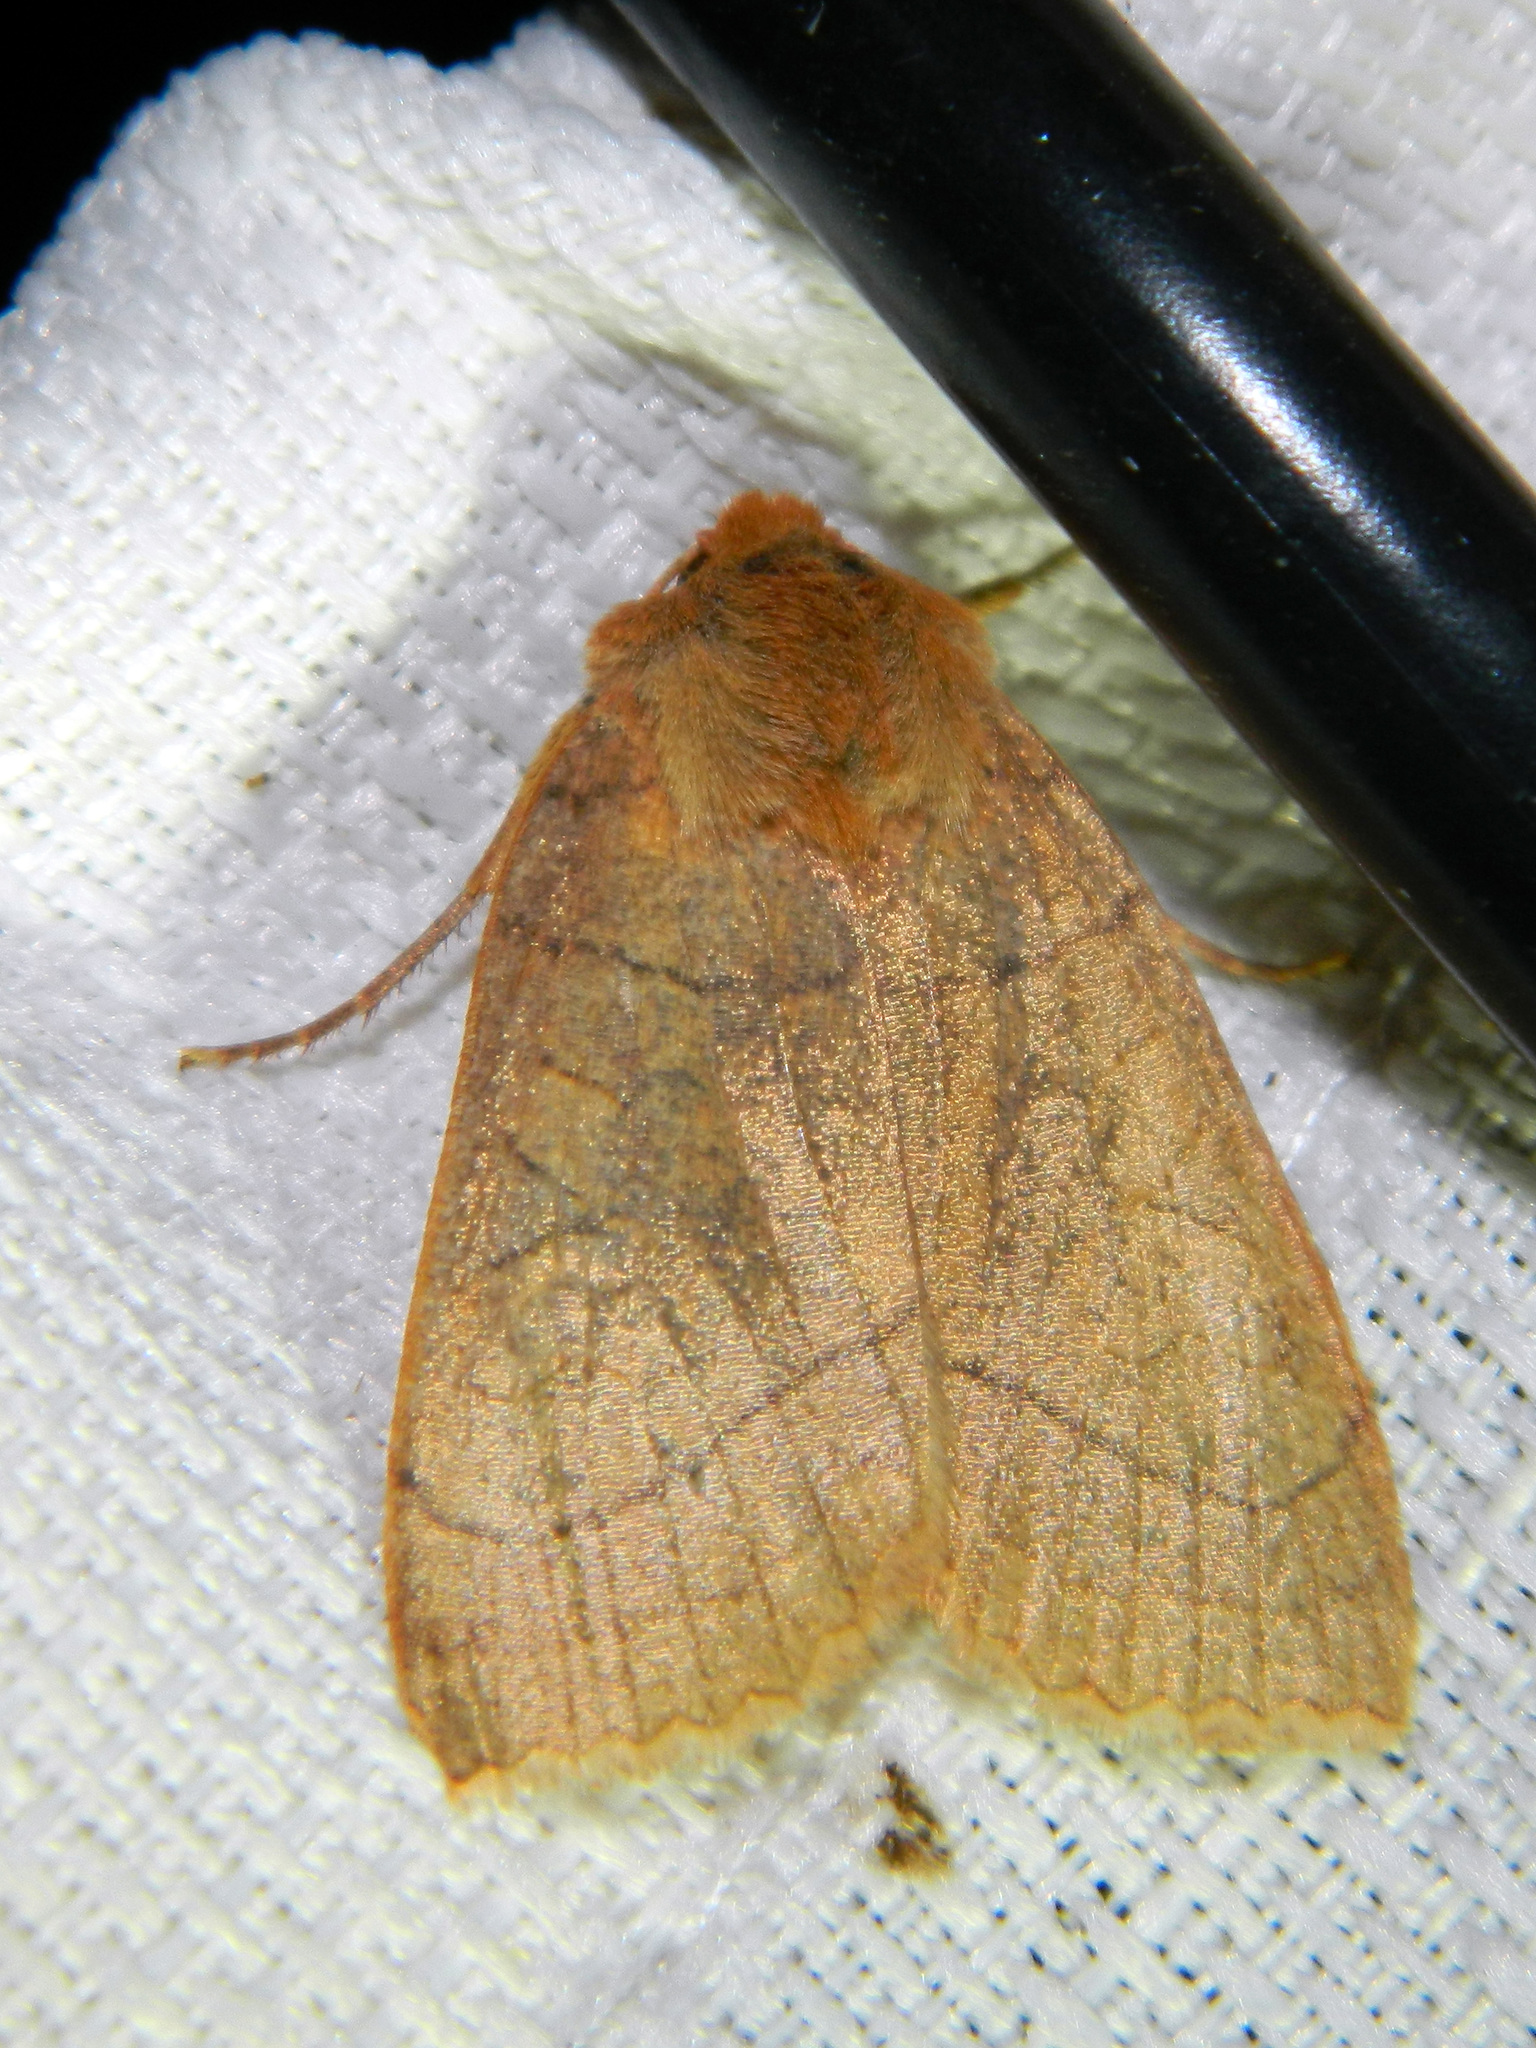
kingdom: Animalia
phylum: Arthropoda
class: Insecta
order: Lepidoptera
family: Noctuidae
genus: Metaxaglaea
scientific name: Metaxaglaea inulta
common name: Unsated sallow
